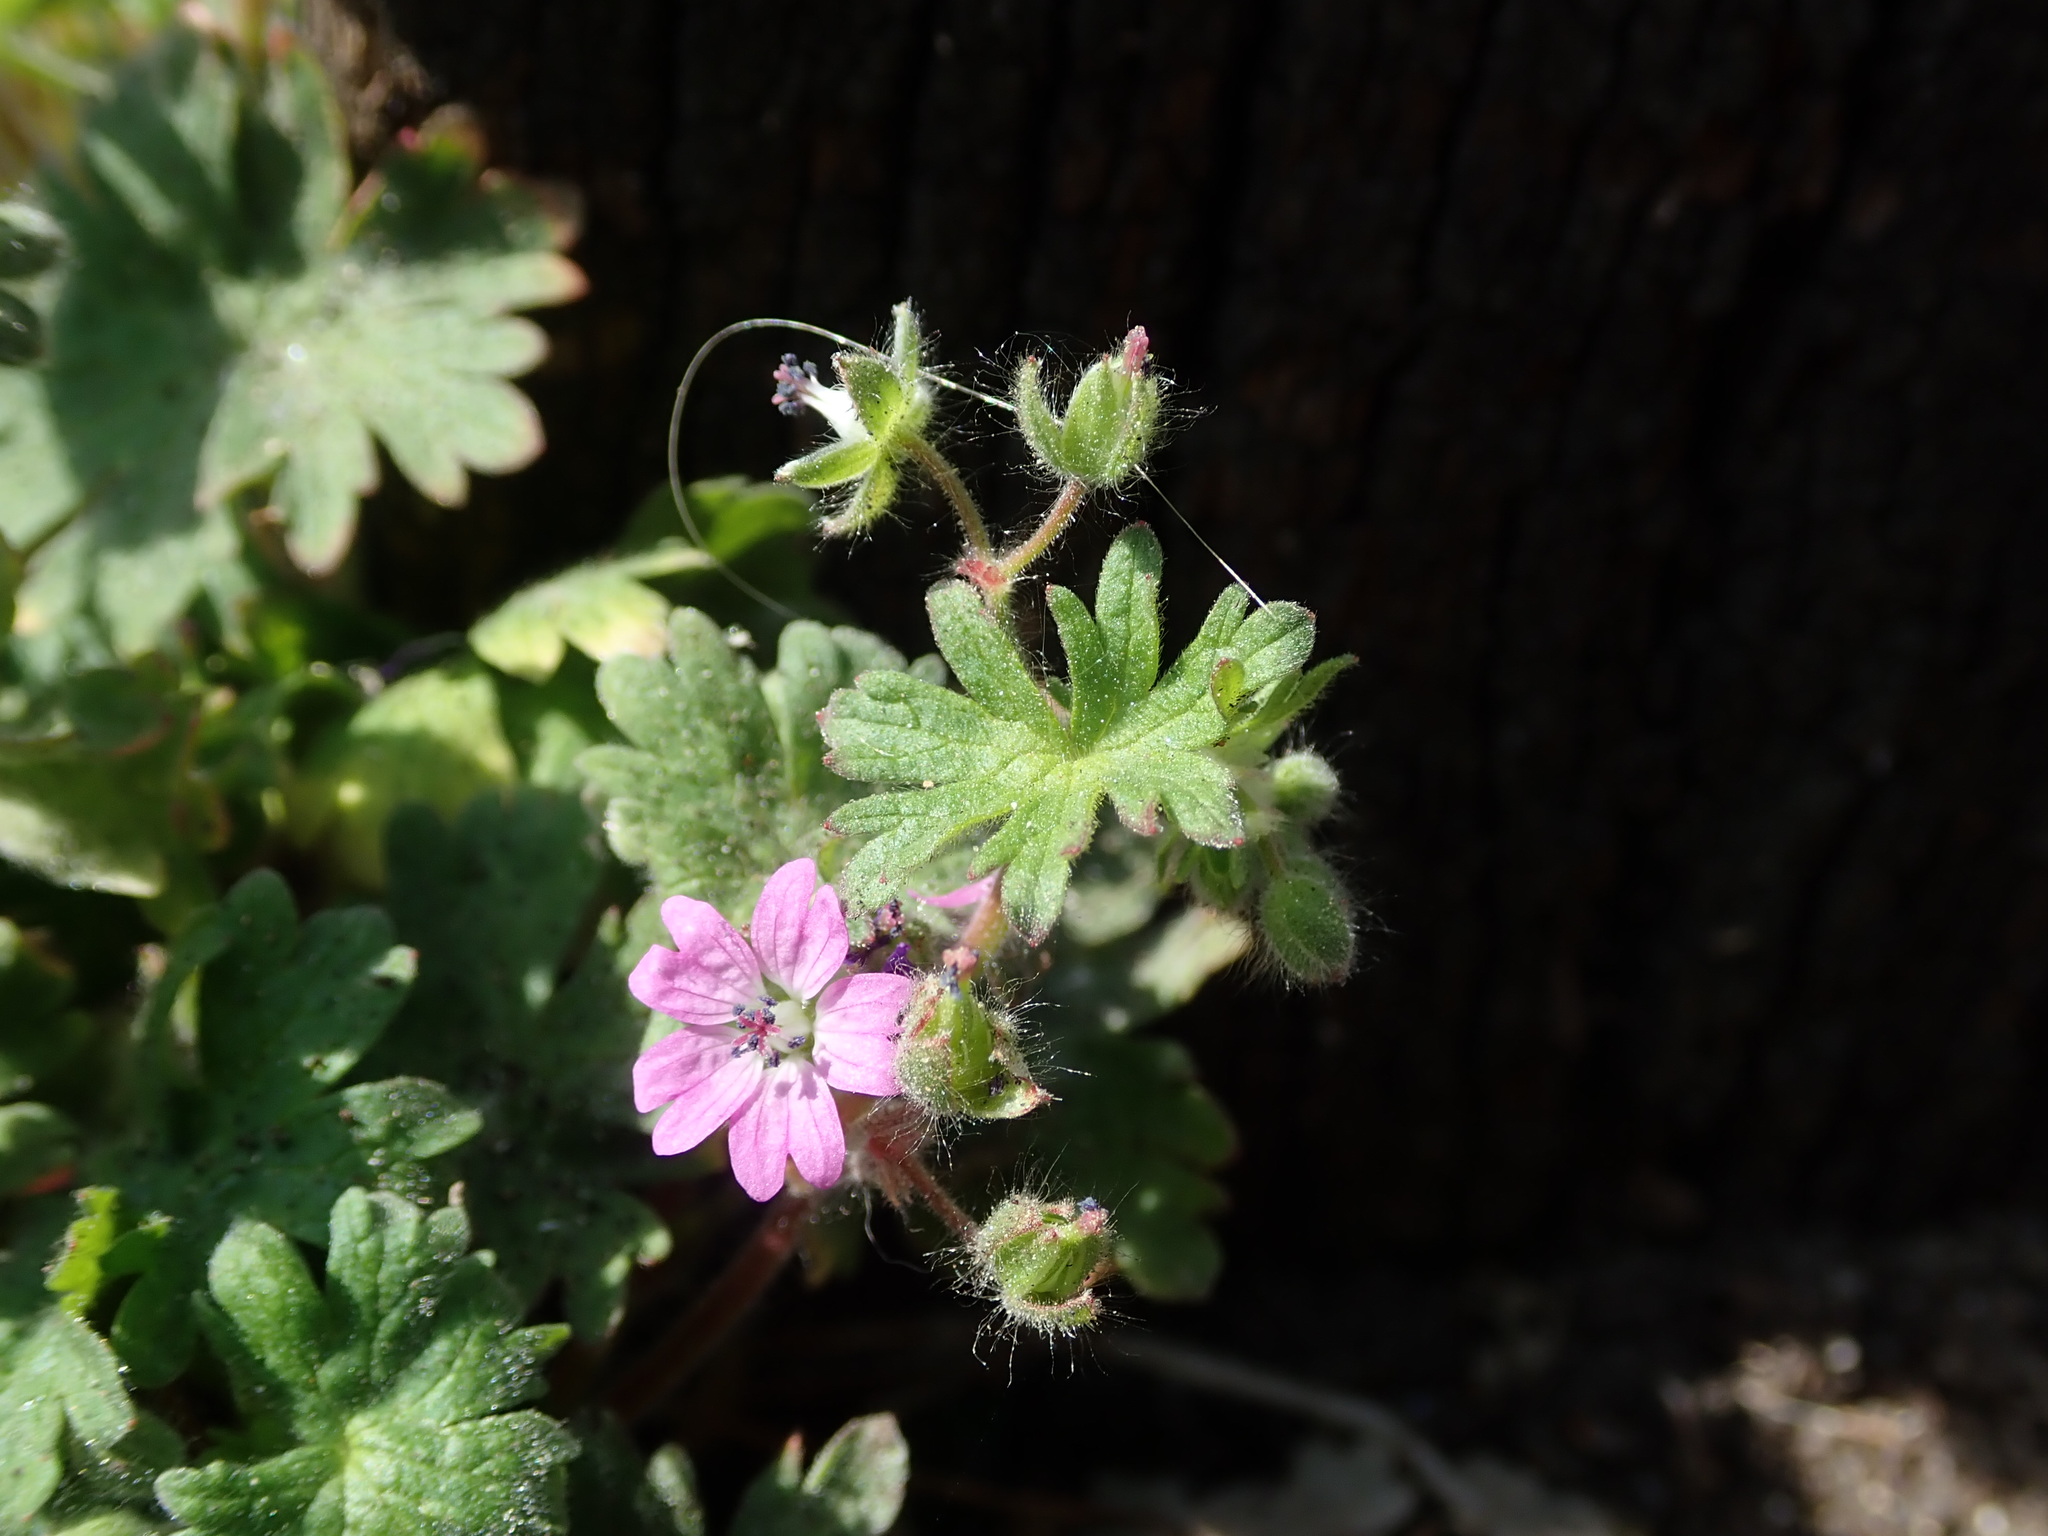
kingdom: Plantae
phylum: Tracheophyta
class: Magnoliopsida
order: Geraniales
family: Geraniaceae
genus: Geranium
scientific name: Geranium molle
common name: Dove's-foot crane's-bill
